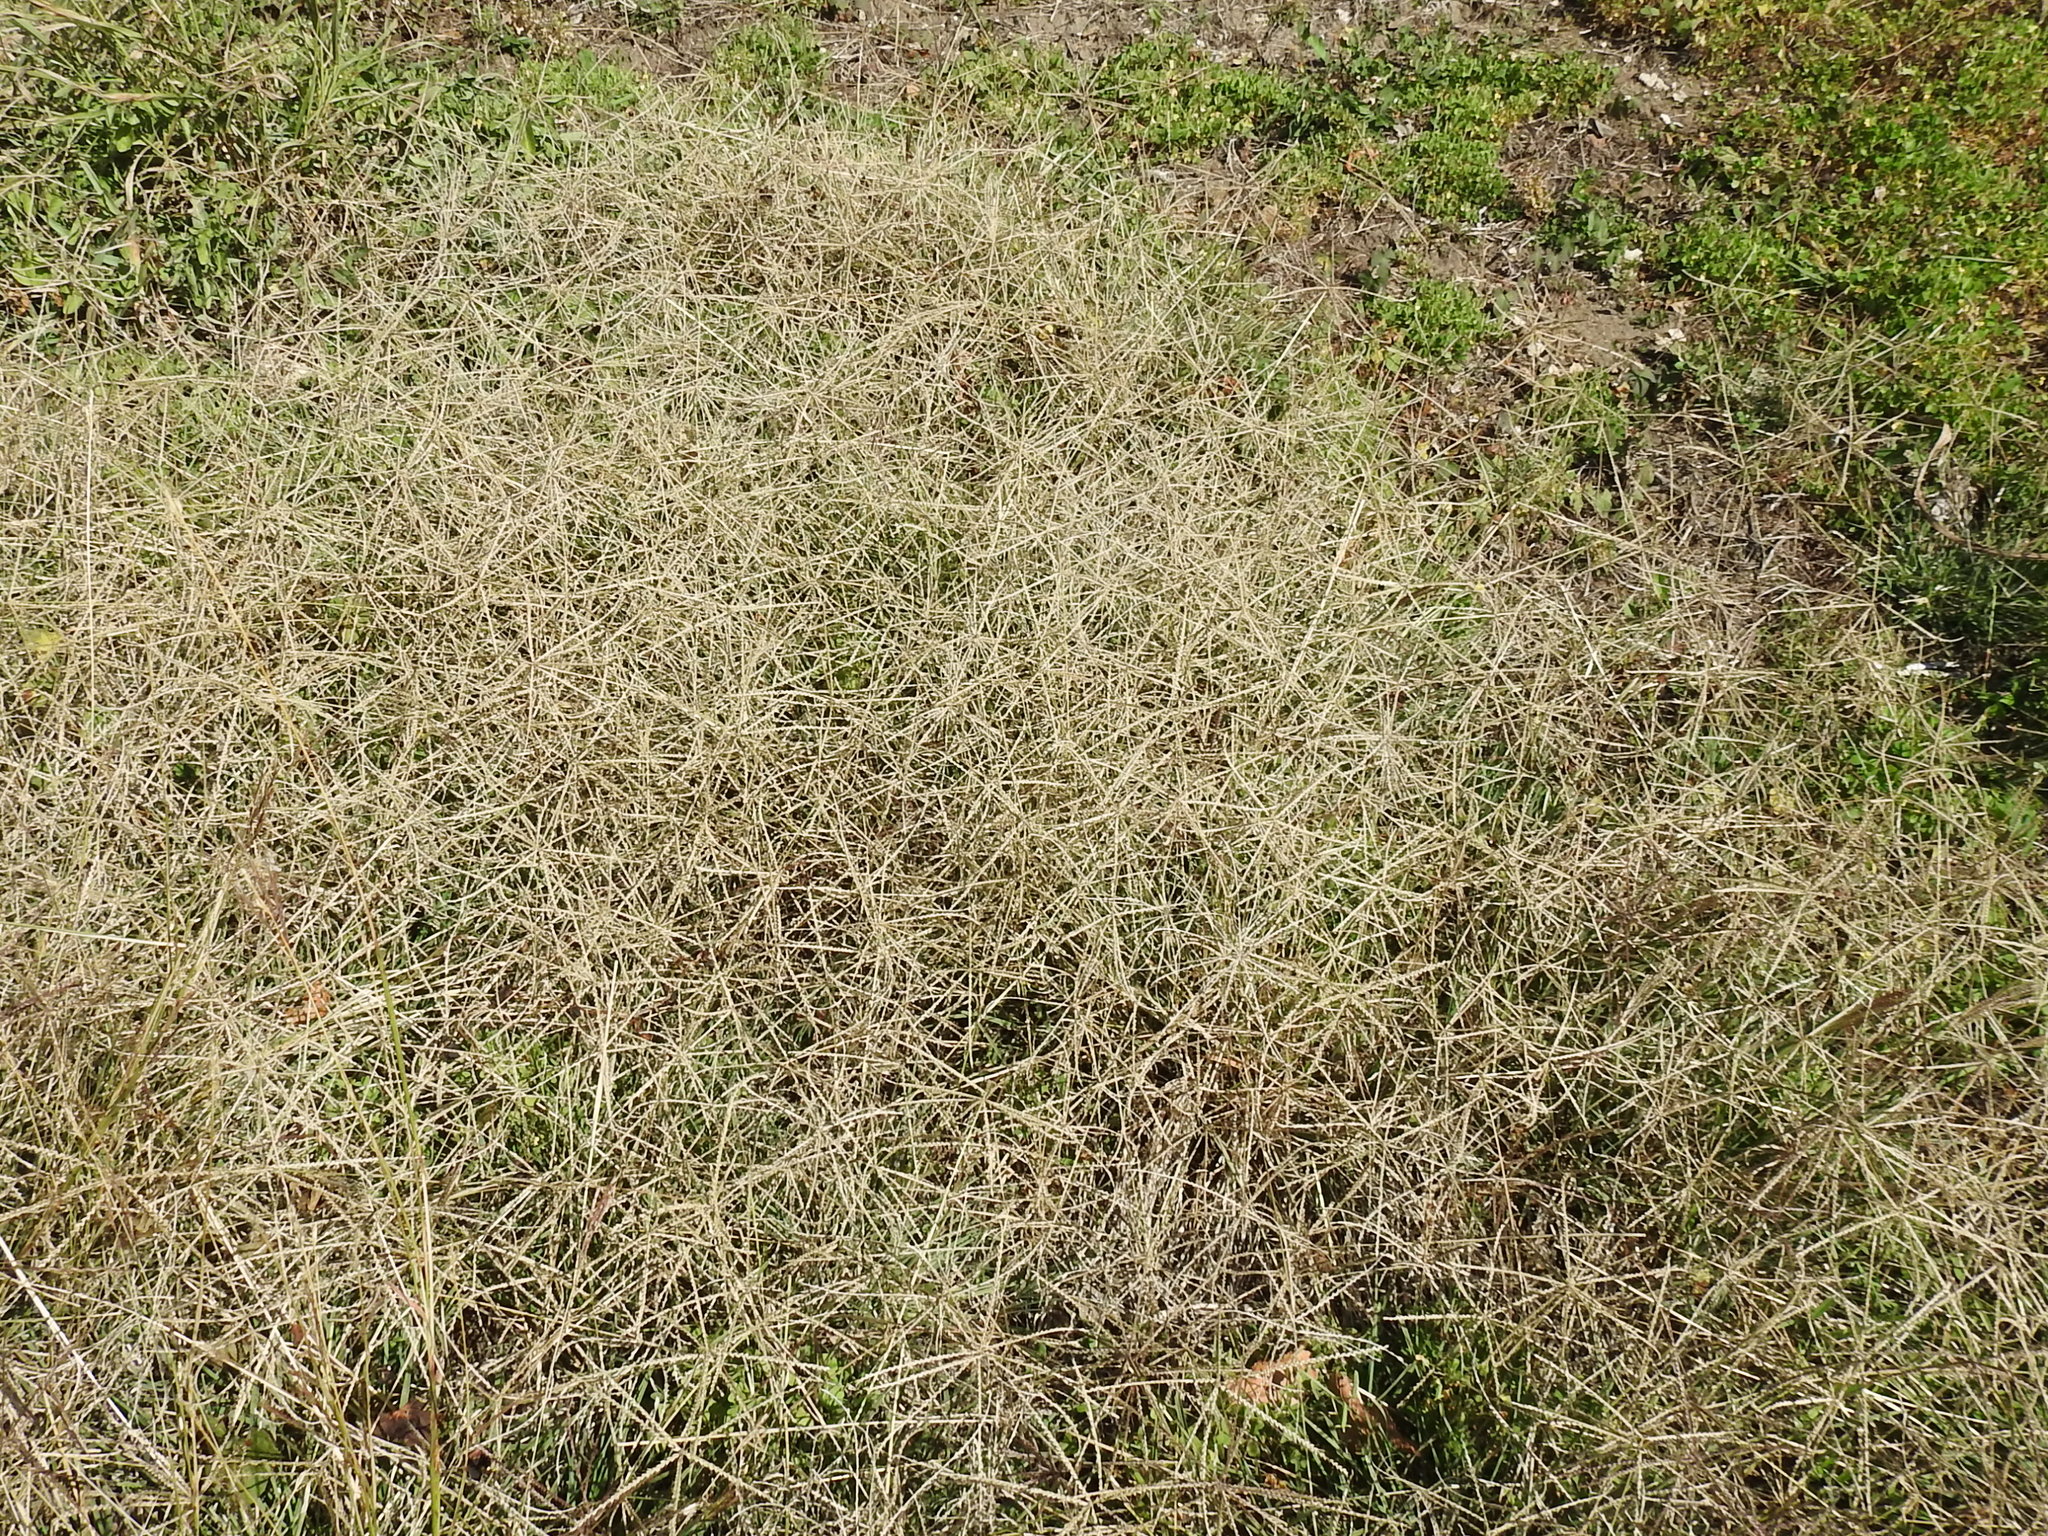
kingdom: Plantae
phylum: Tracheophyta
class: Liliopsida
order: Poales
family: Poaceae
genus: Chloris
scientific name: Chloris verticillata
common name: Tumble windmill grass
